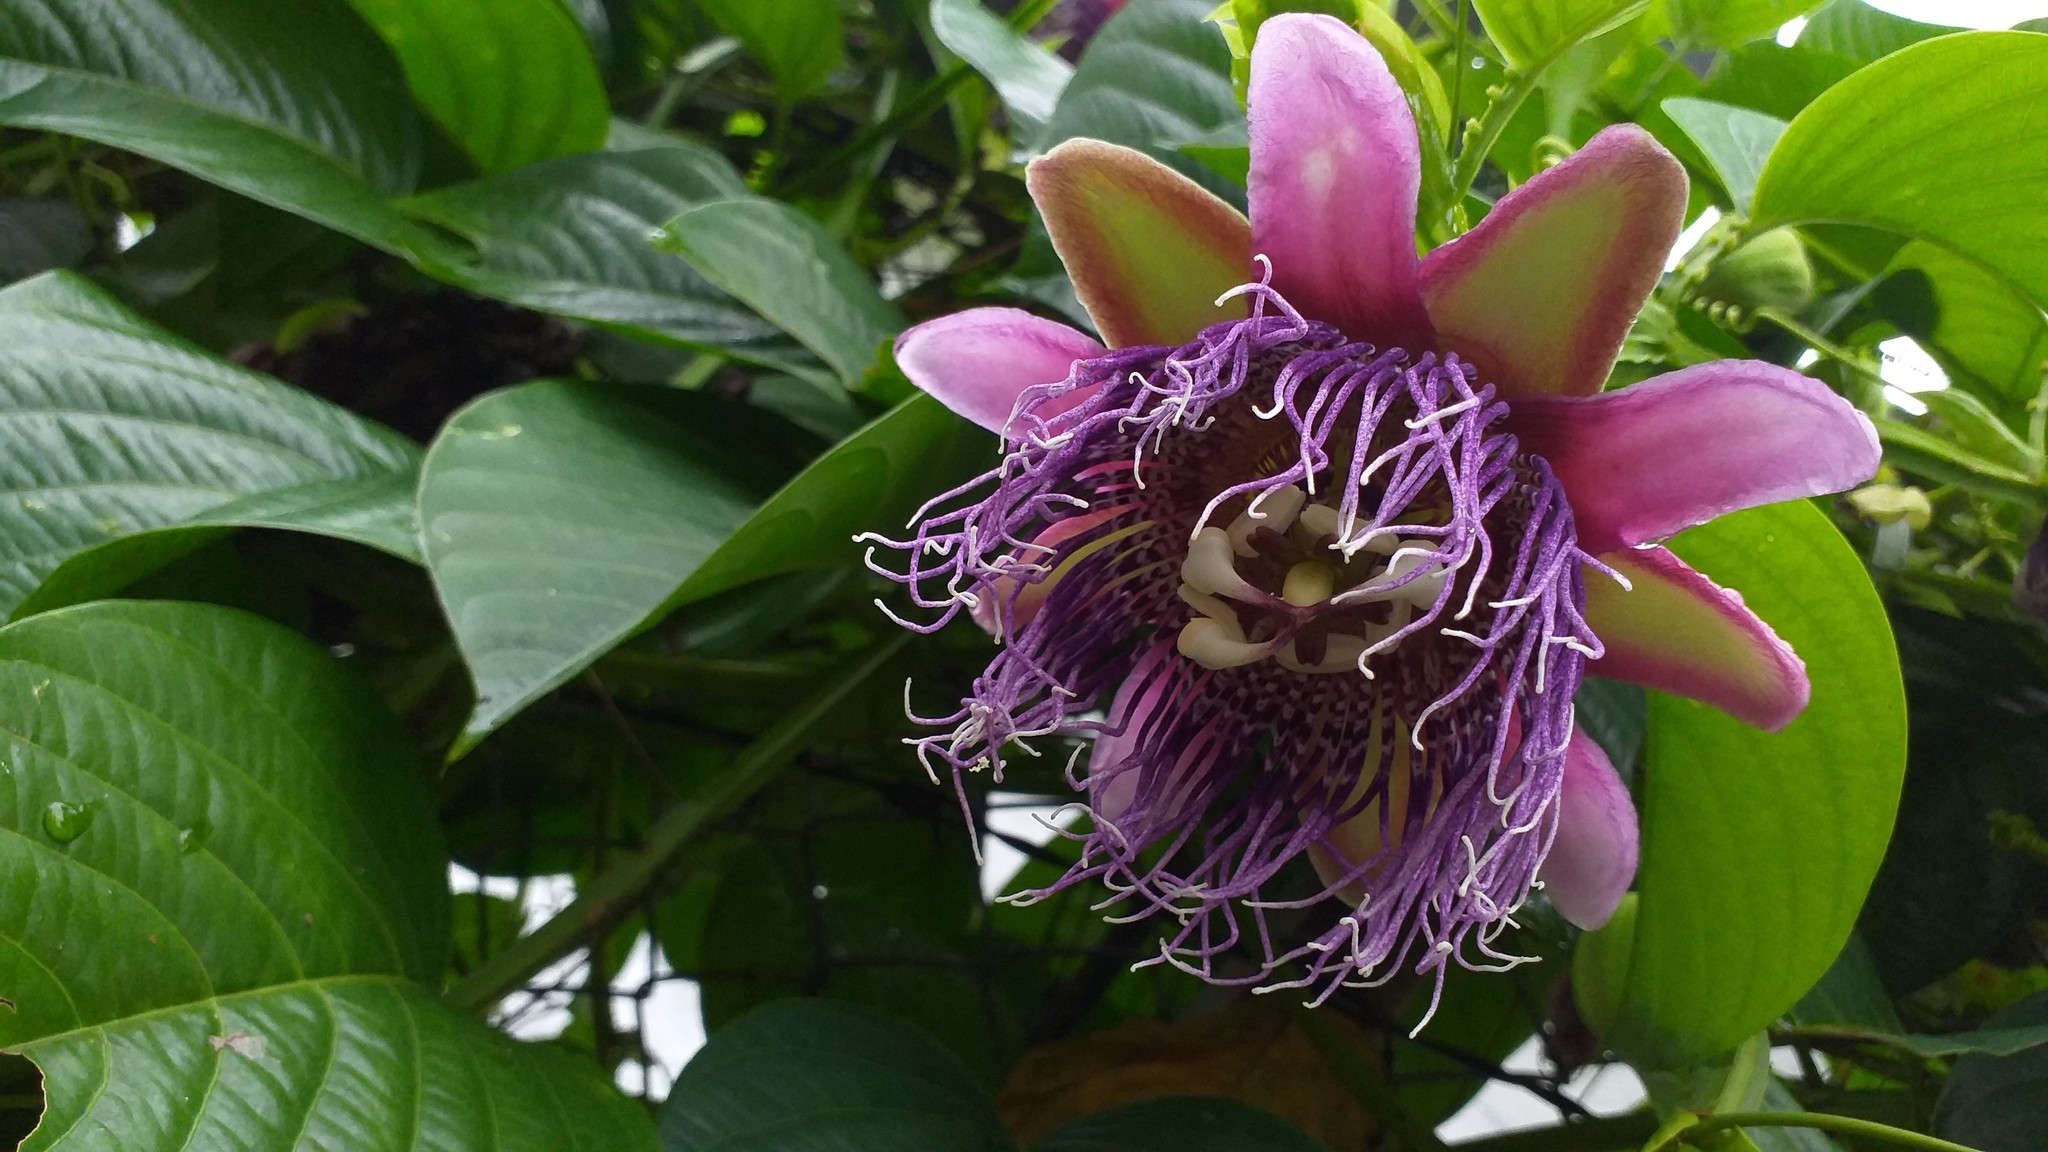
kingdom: Plantae
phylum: Tracheophyta
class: Magnoliopsida
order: Malpighiales
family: Passifloraceae
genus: Passiflora
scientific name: Passiflora quadrangularis
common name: Giant granadilla
